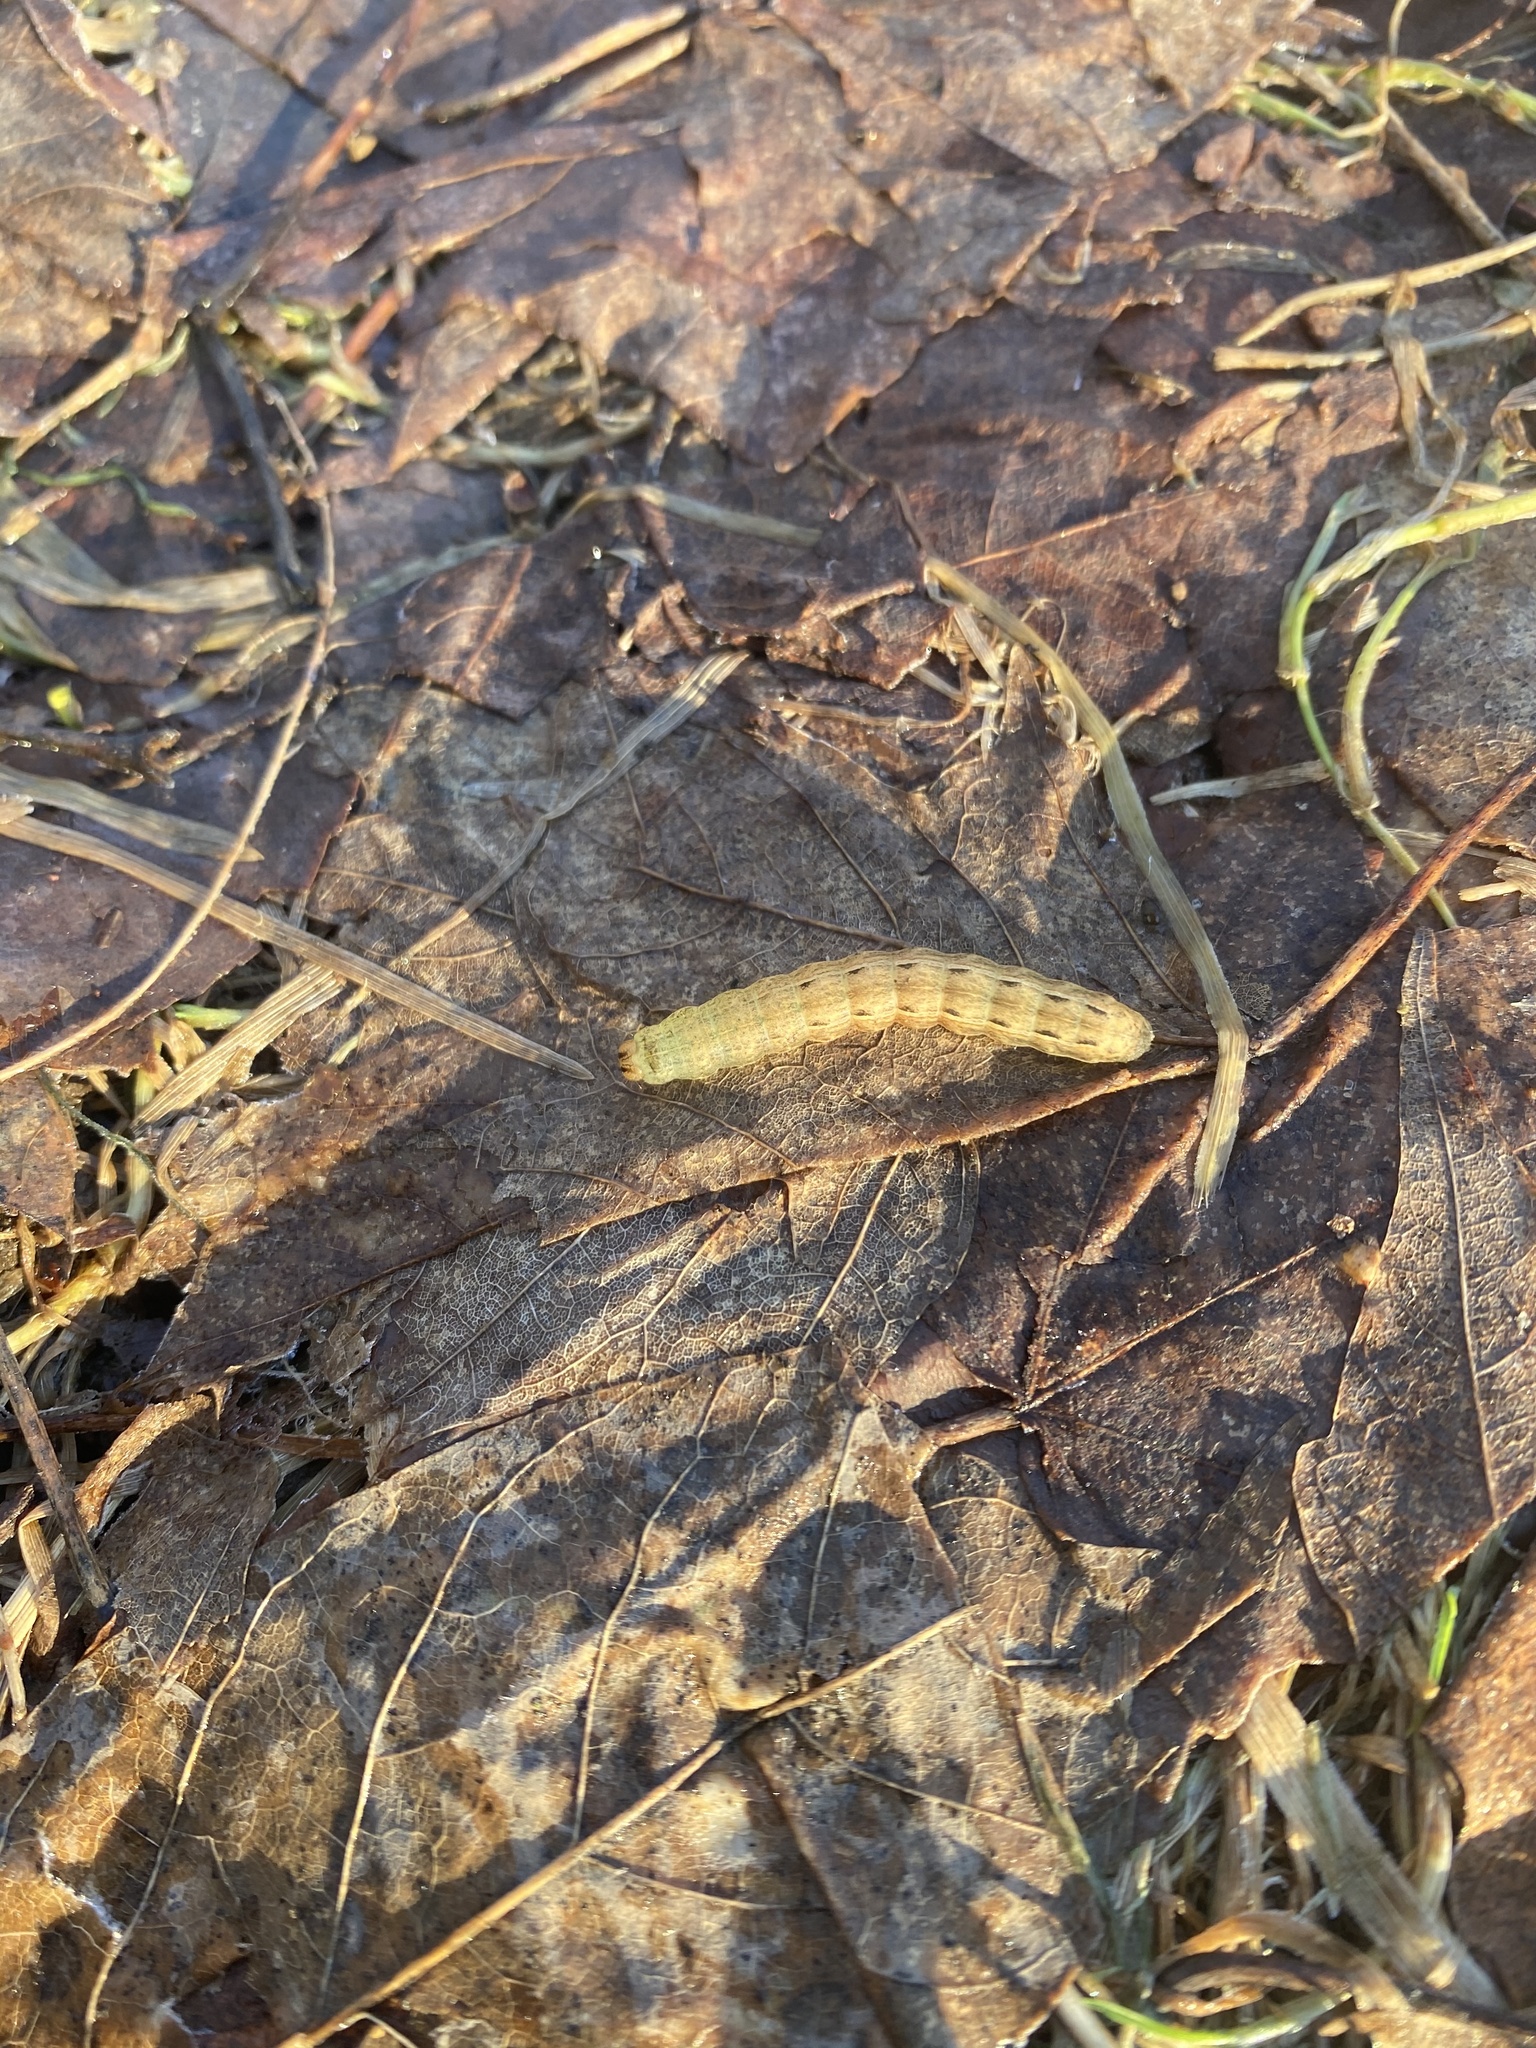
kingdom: Animalia
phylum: Arthropoda
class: Insecta
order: Lepidoptera
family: Noctuidae
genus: Noctua
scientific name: Noctua pronuba
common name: Large yellow underwing
